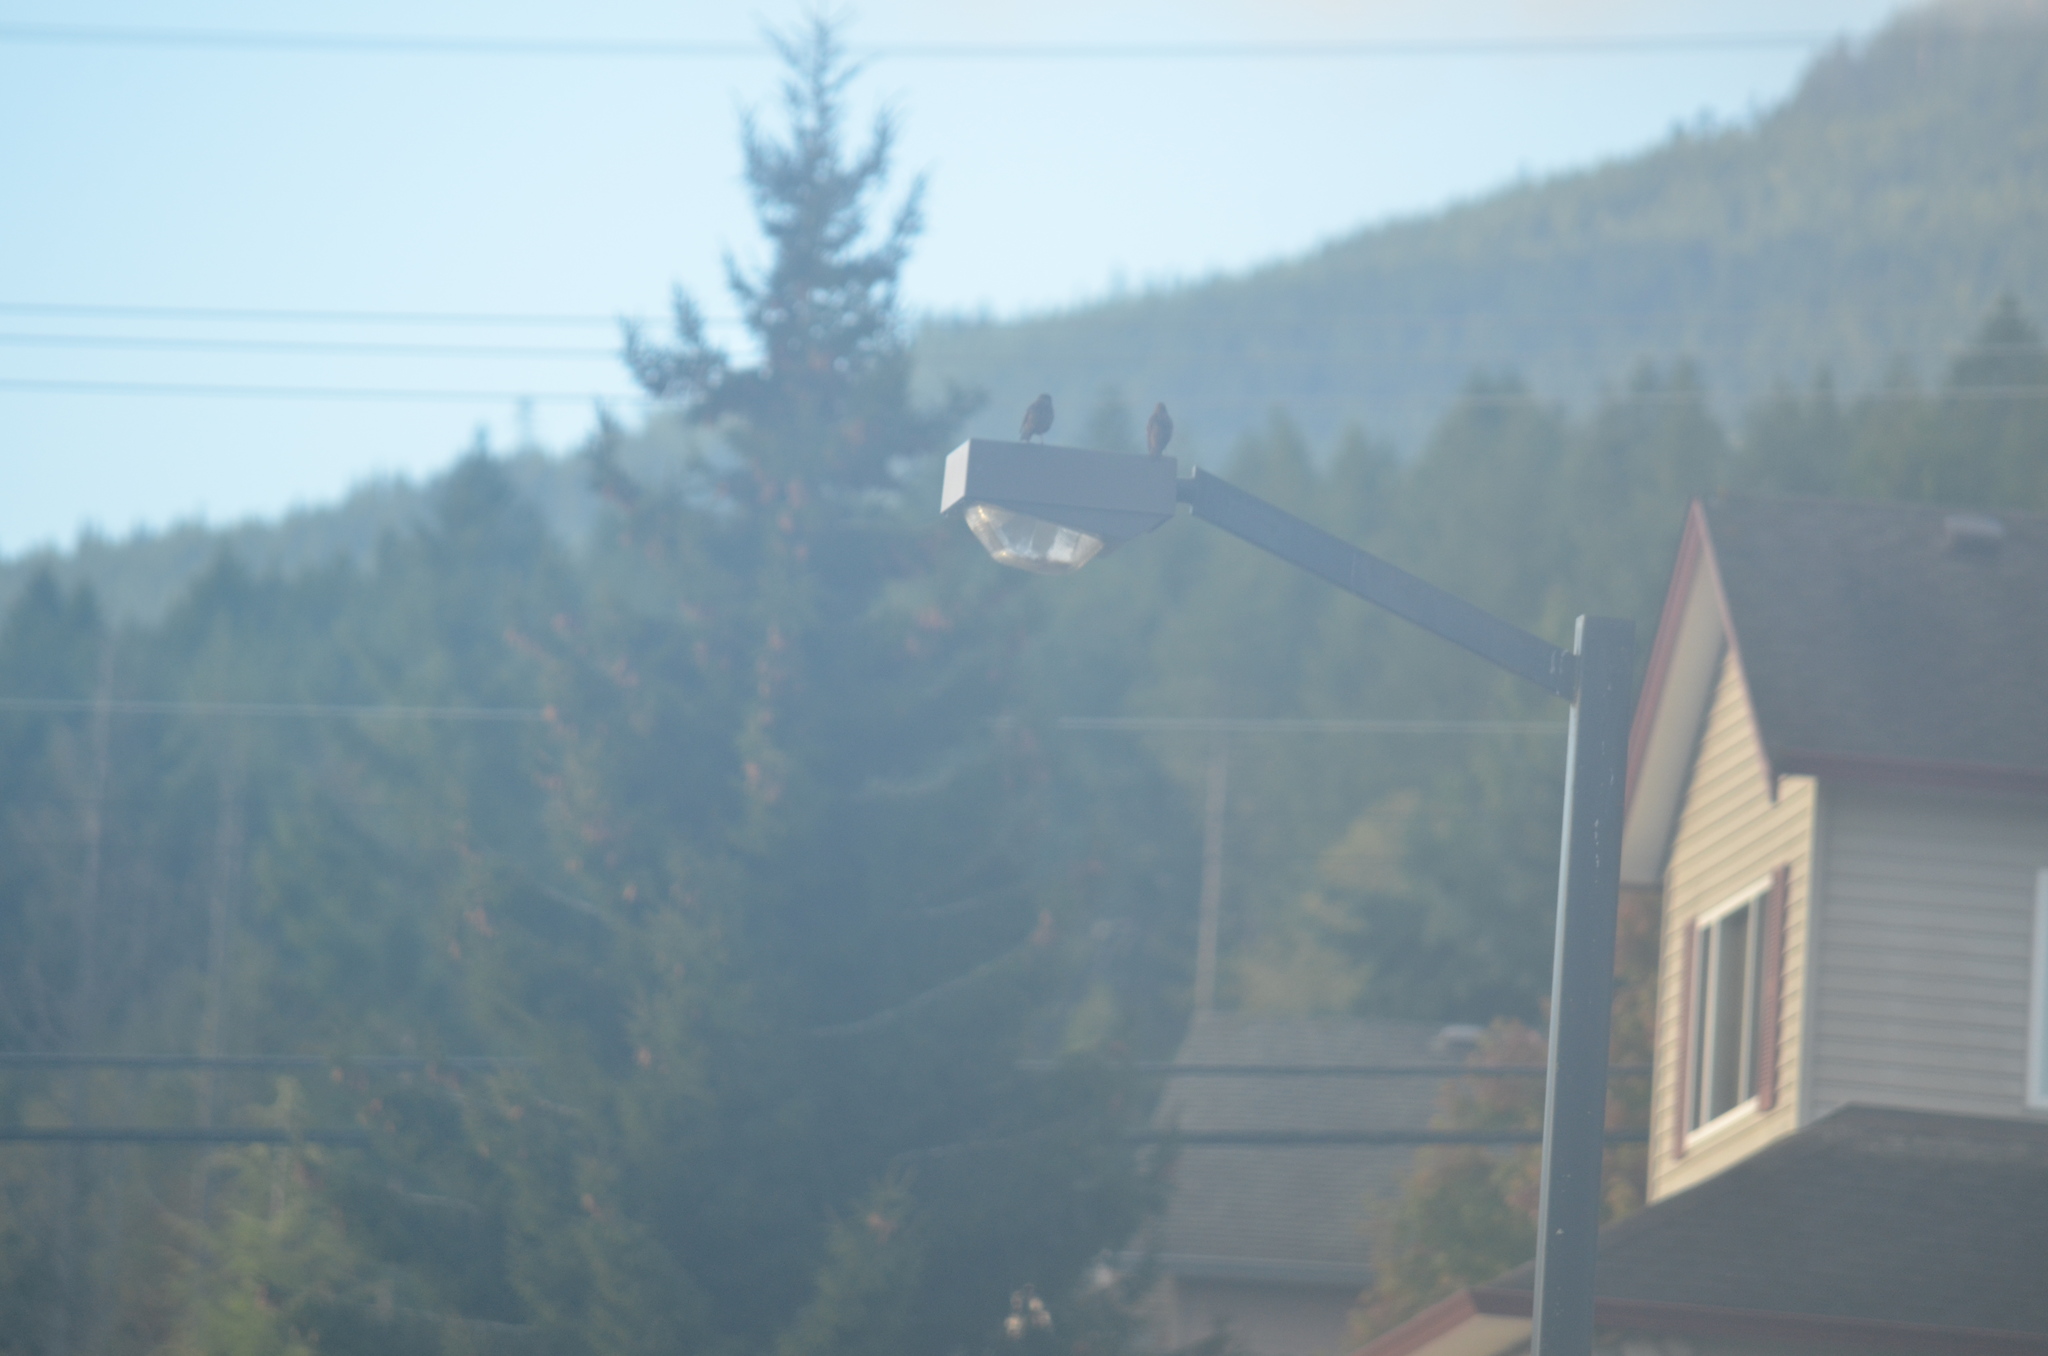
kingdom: Animalia
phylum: Chordata
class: Aves
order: Passeriformes
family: Sturnidae
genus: Sturnus
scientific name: Sturnus vulgaris
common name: Common starling
